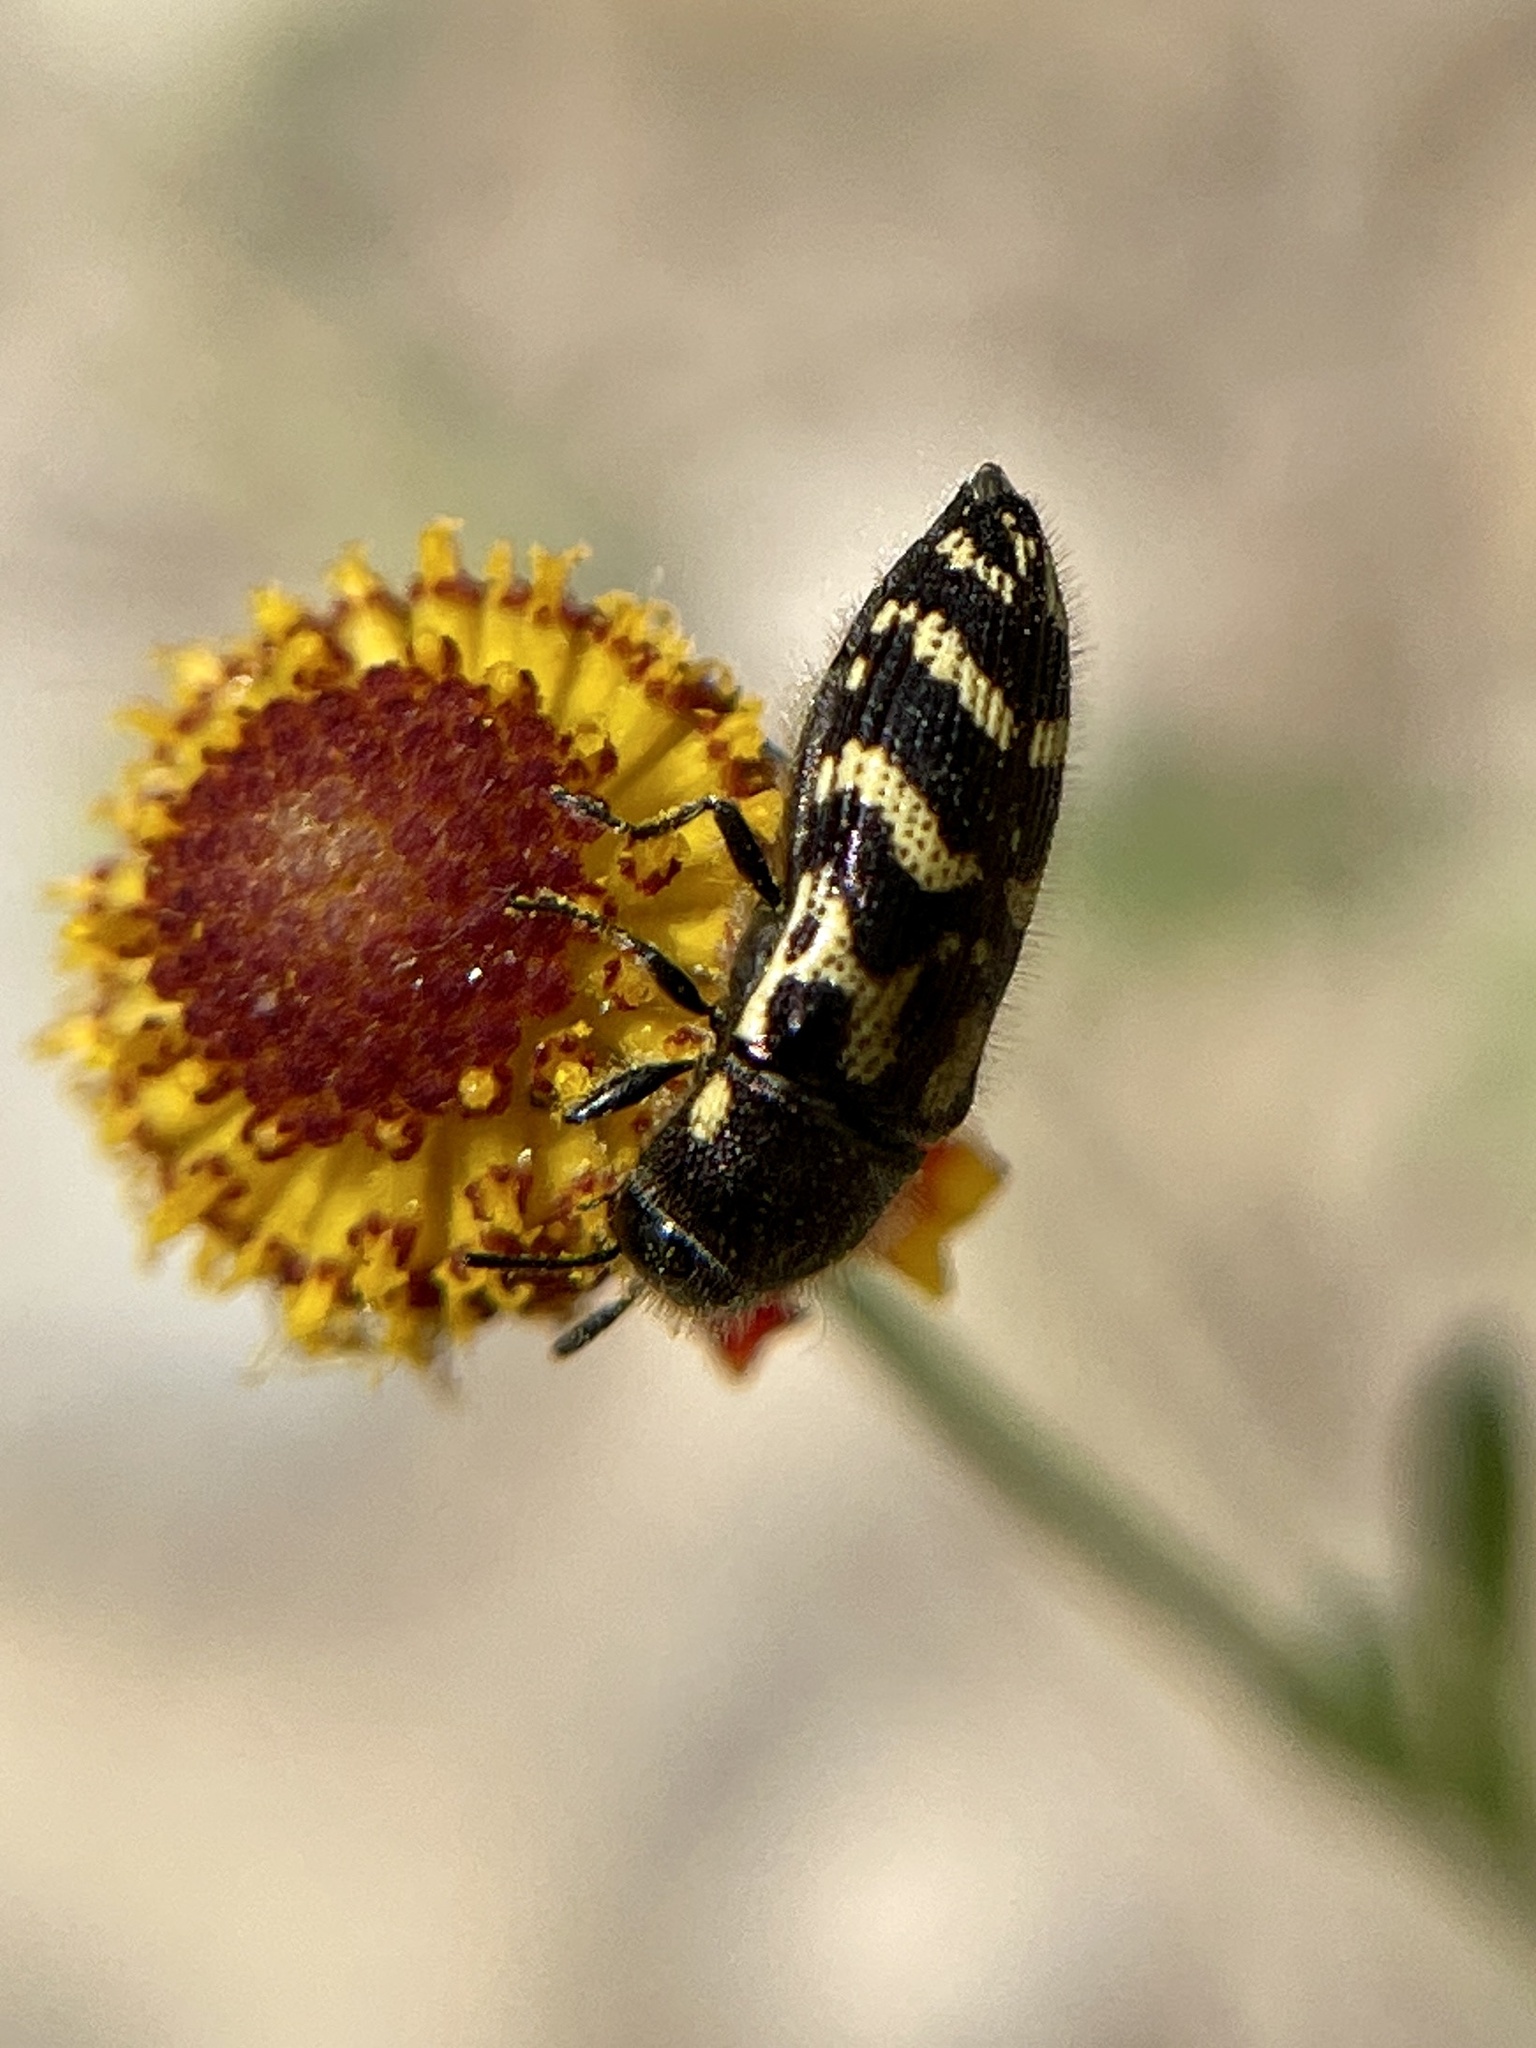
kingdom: Animalia
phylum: Arthropoda
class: Insecta
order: Coleoptera
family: Buprestidae
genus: Acmaeodera
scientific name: Acmaeodera mixta
